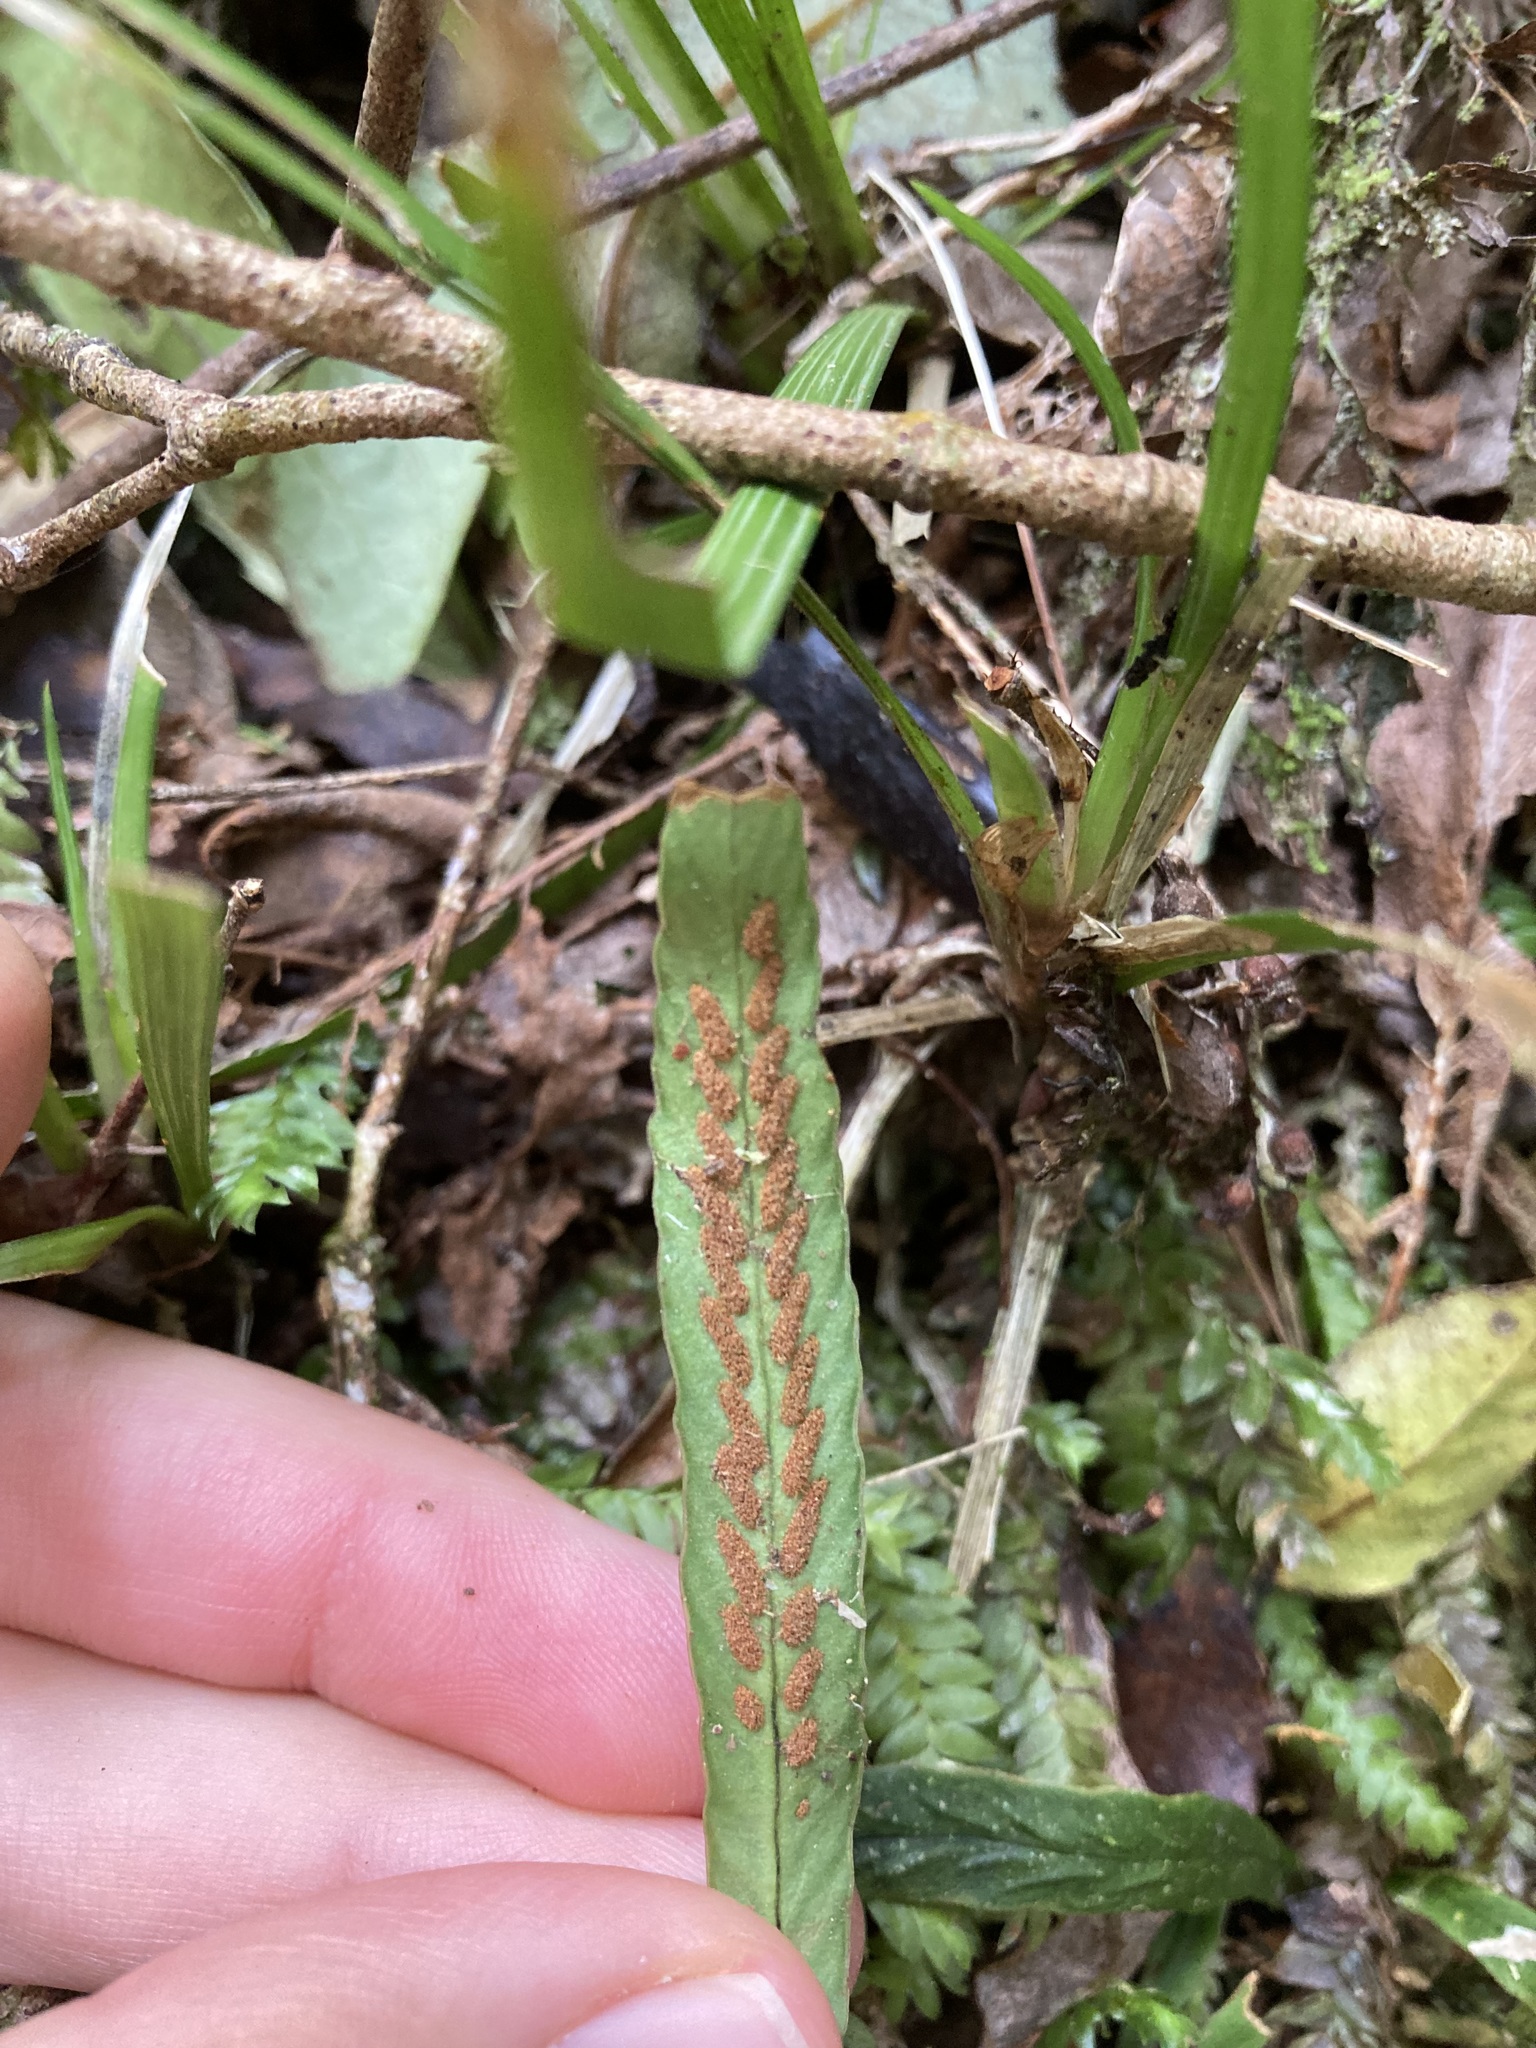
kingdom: Plantae
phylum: Tracheophyta
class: Polypodiopsida
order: Polypodiales
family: Polypodiaceae
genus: Notogrammitis
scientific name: Notogrammitis billardierei
